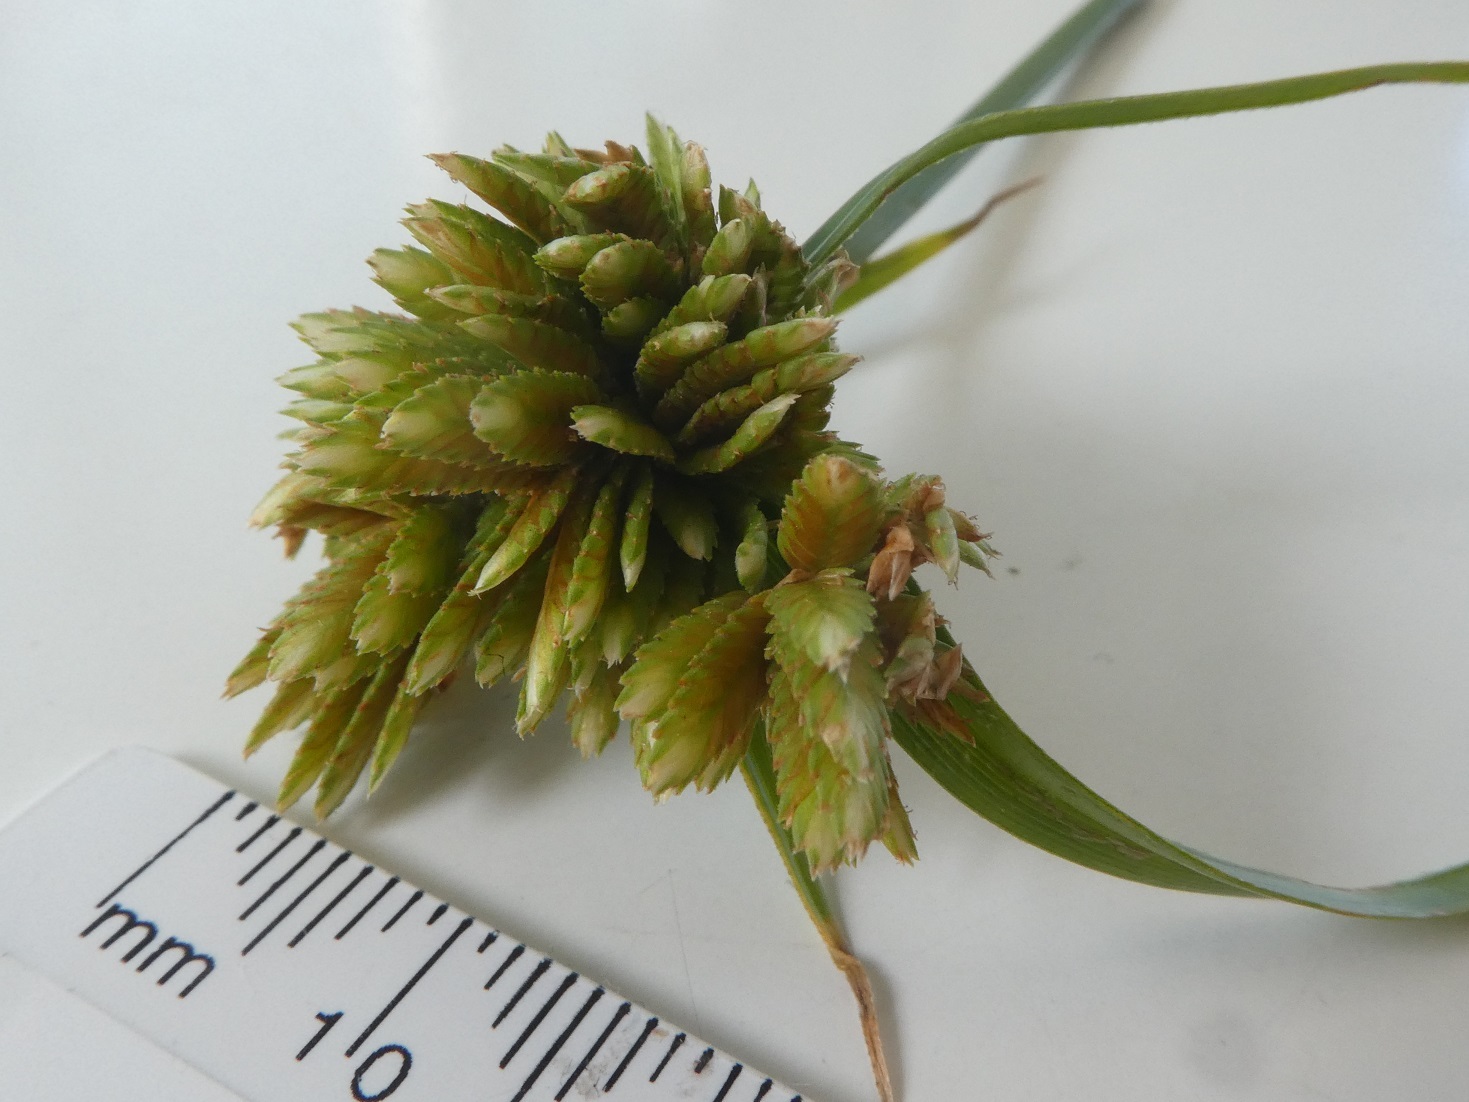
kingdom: Plantae
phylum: Tracheophyta
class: Liliopsida
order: Poales
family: Cyperaceae
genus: Cyperus
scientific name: Cyperus eragrostis
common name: Tall flatsedge
